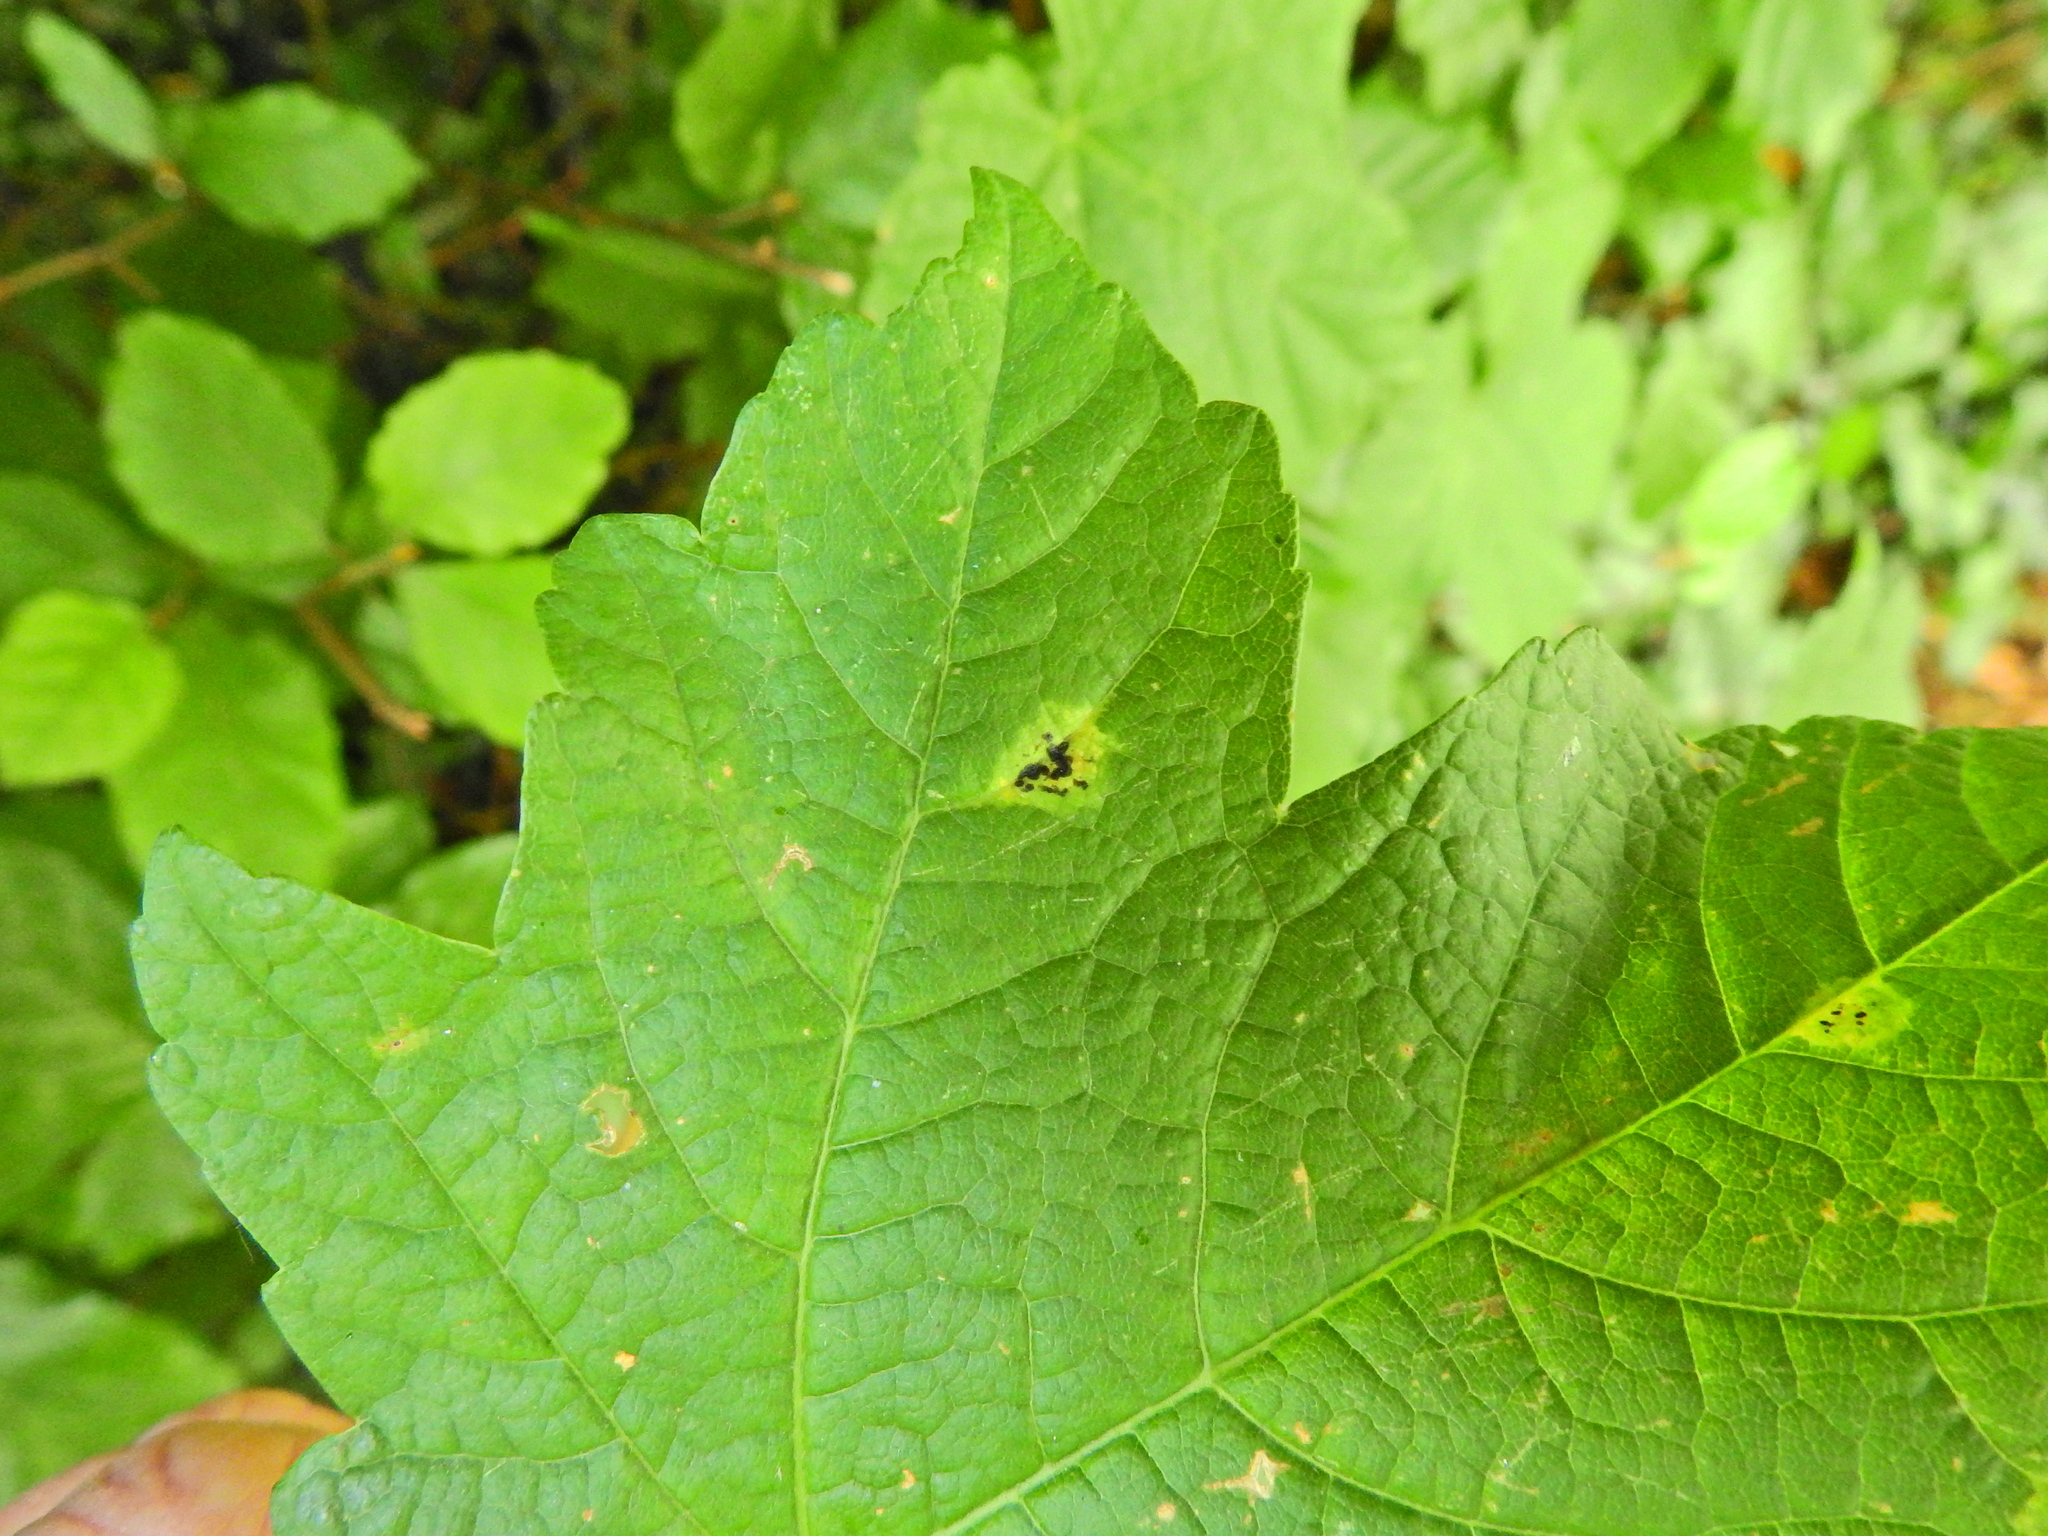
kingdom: Fungi
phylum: Ascomycota
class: Leotiomycetes
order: Rhytismatales
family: Rhytismataceae
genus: Rhytisma
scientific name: Rhytisma acerinum
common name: European tar spot
